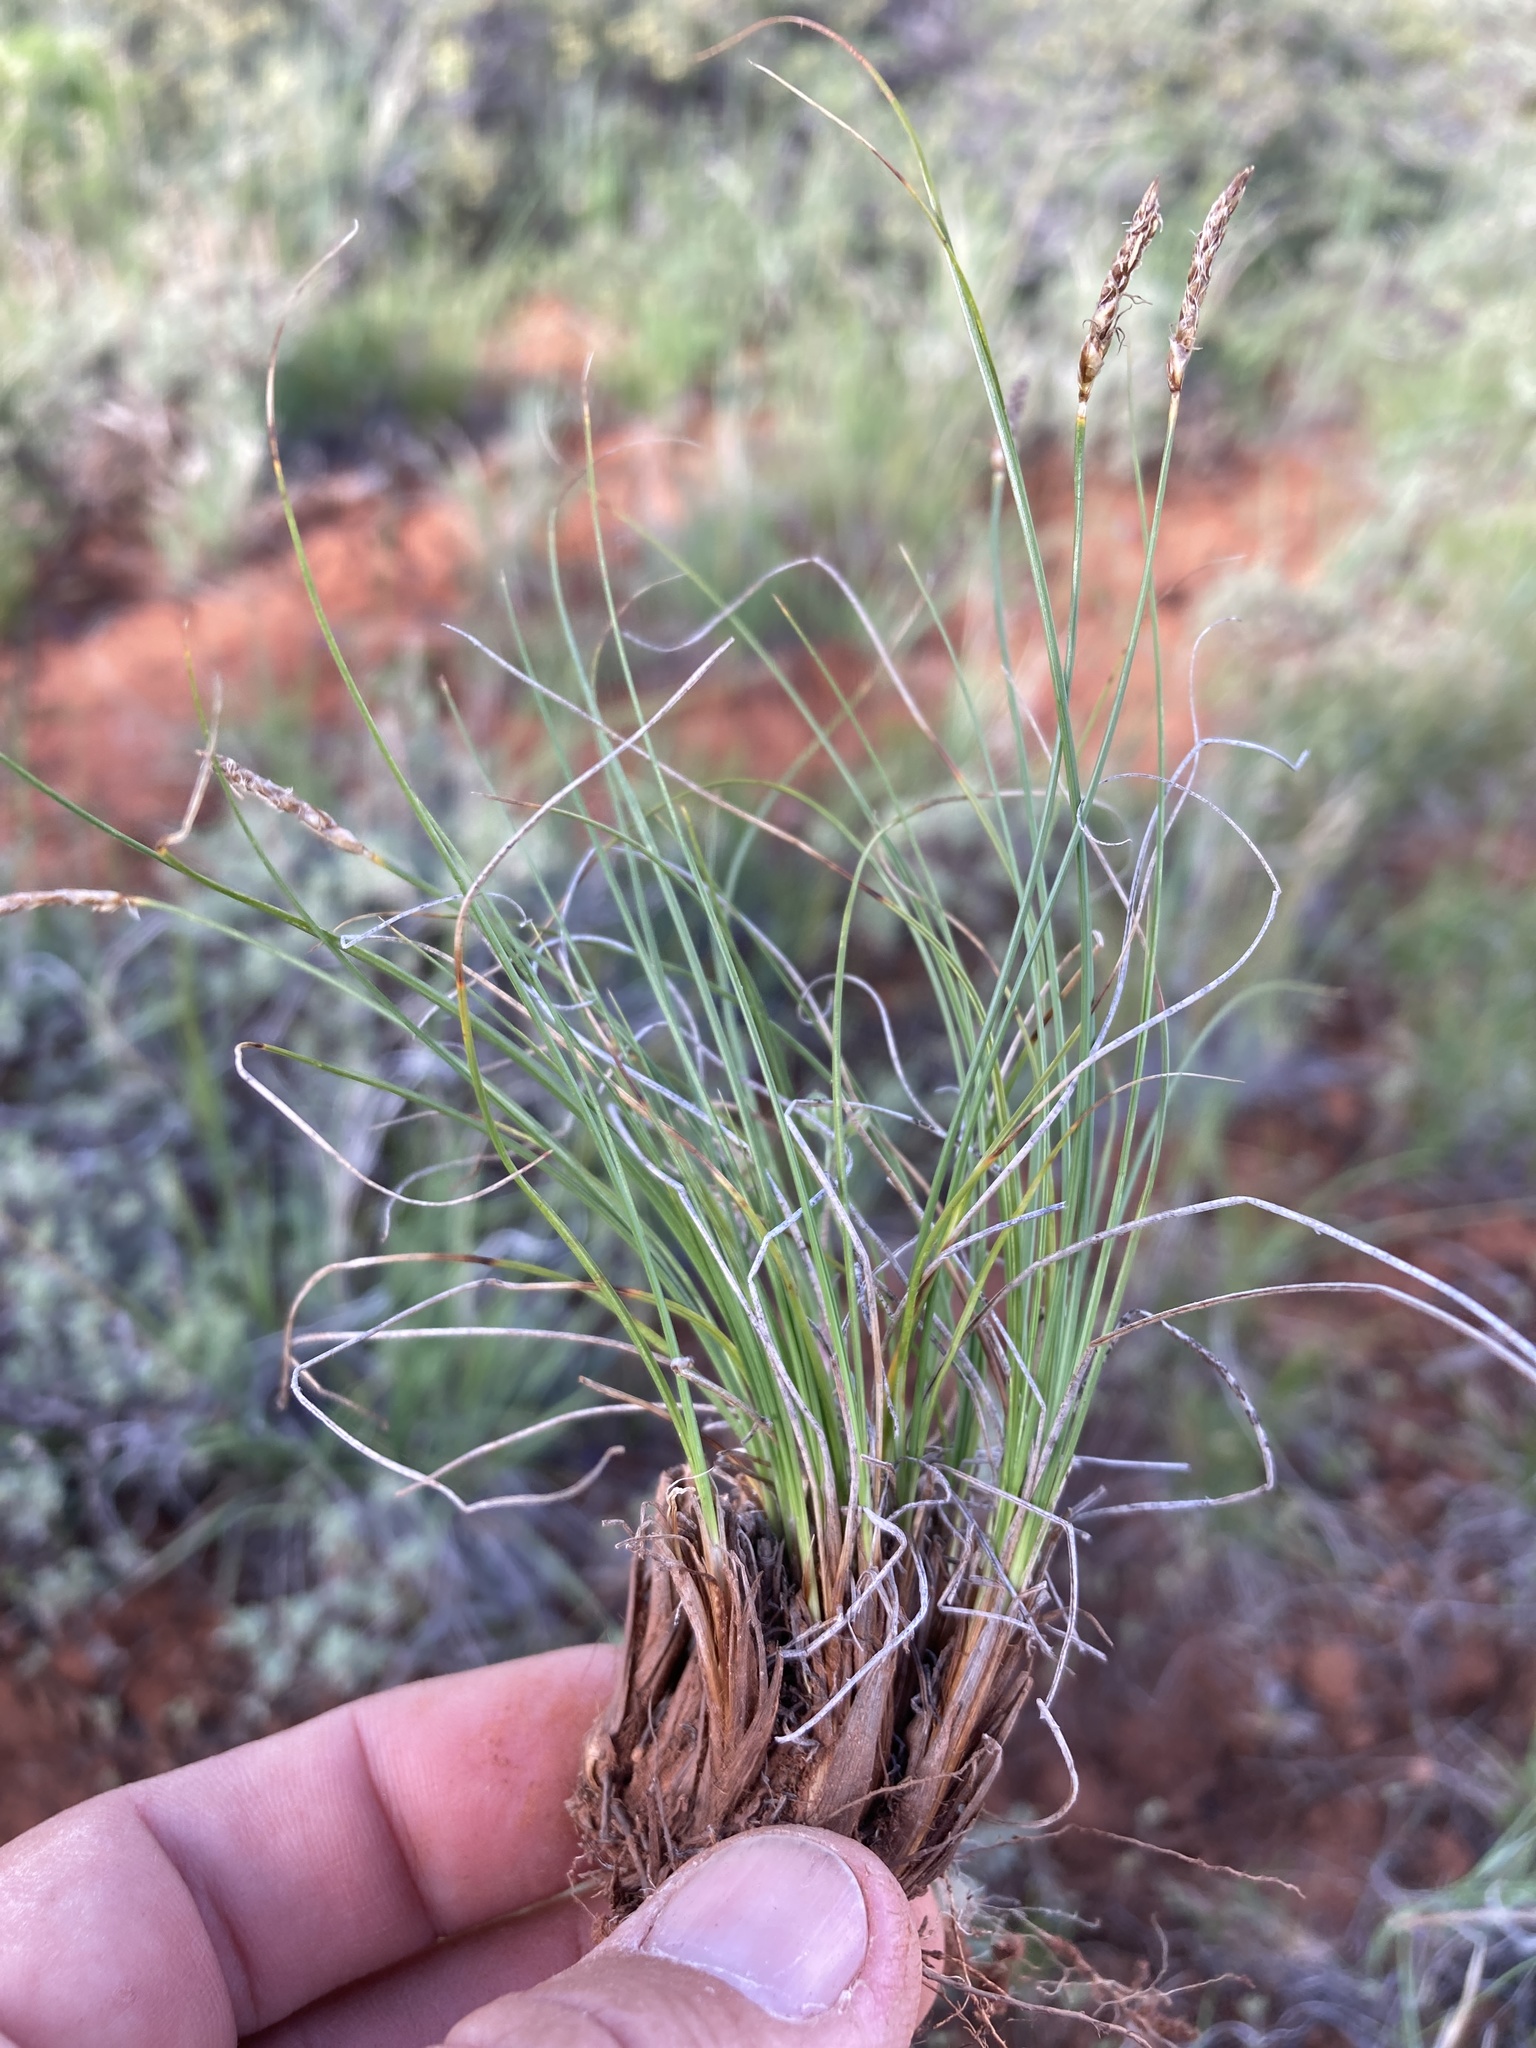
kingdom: Plantae
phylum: Tracheophyta
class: Liliopsida
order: Poales
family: Cyperaceae
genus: Carex
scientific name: Carex filifolia
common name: Threadleaf sedge
